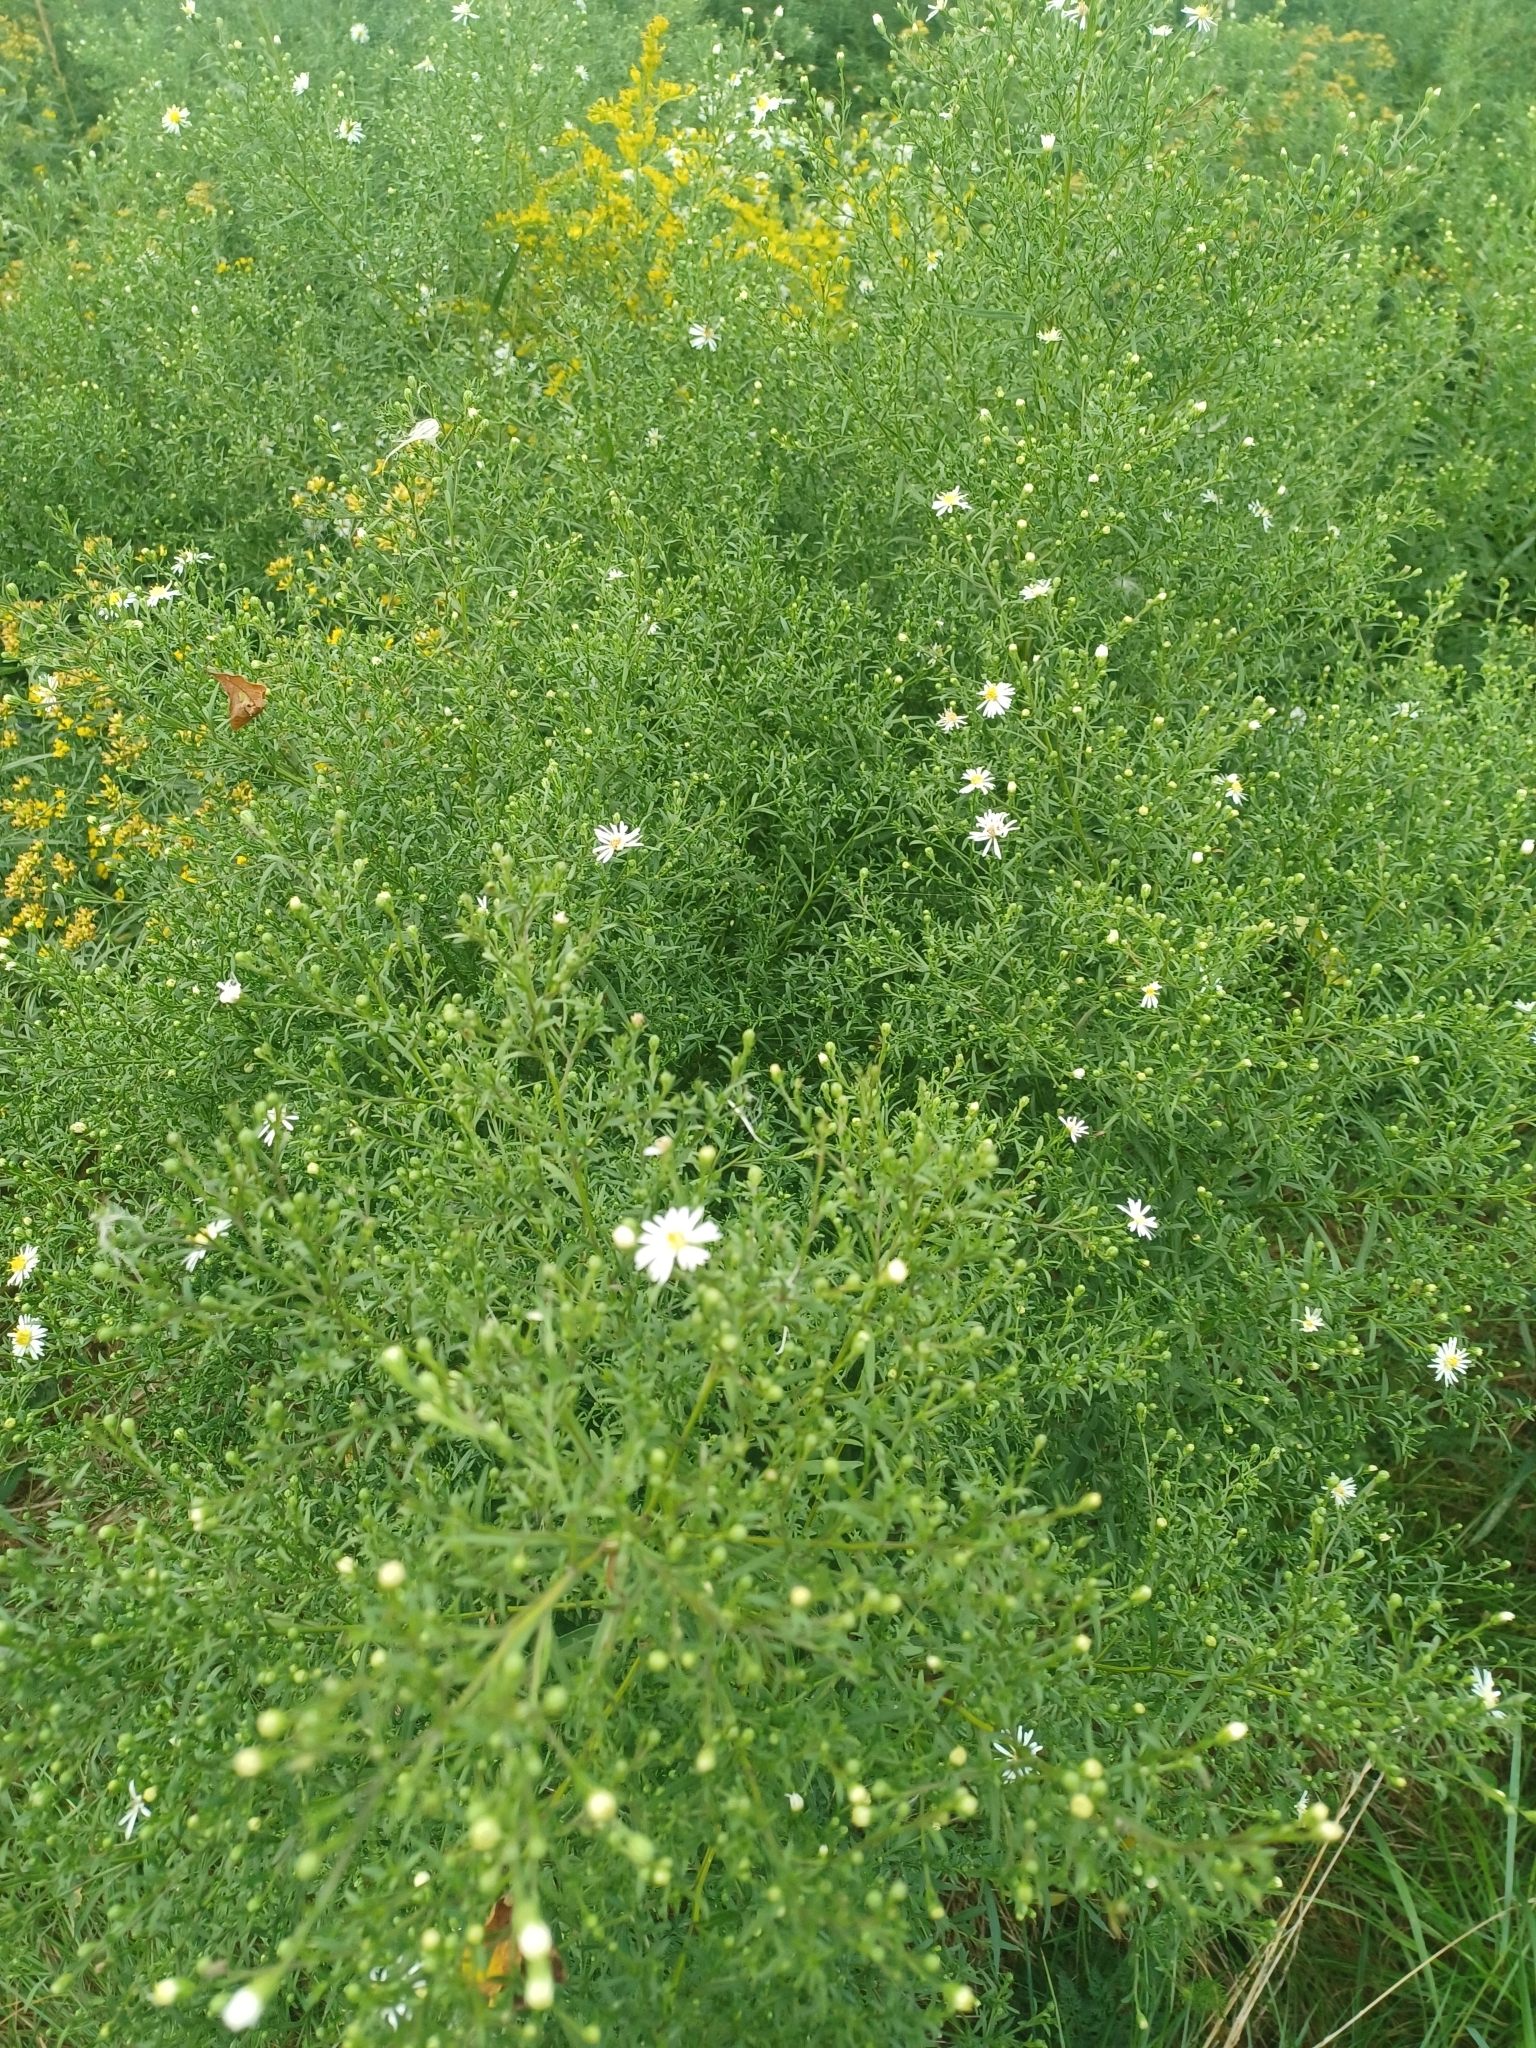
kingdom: Plantae
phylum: Tracheophyta
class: Magnoliopsida
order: Asterales
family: Asteraceae
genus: Symphyotrichum
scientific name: Symphyotrichum lanceolatum
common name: Panicled aster
